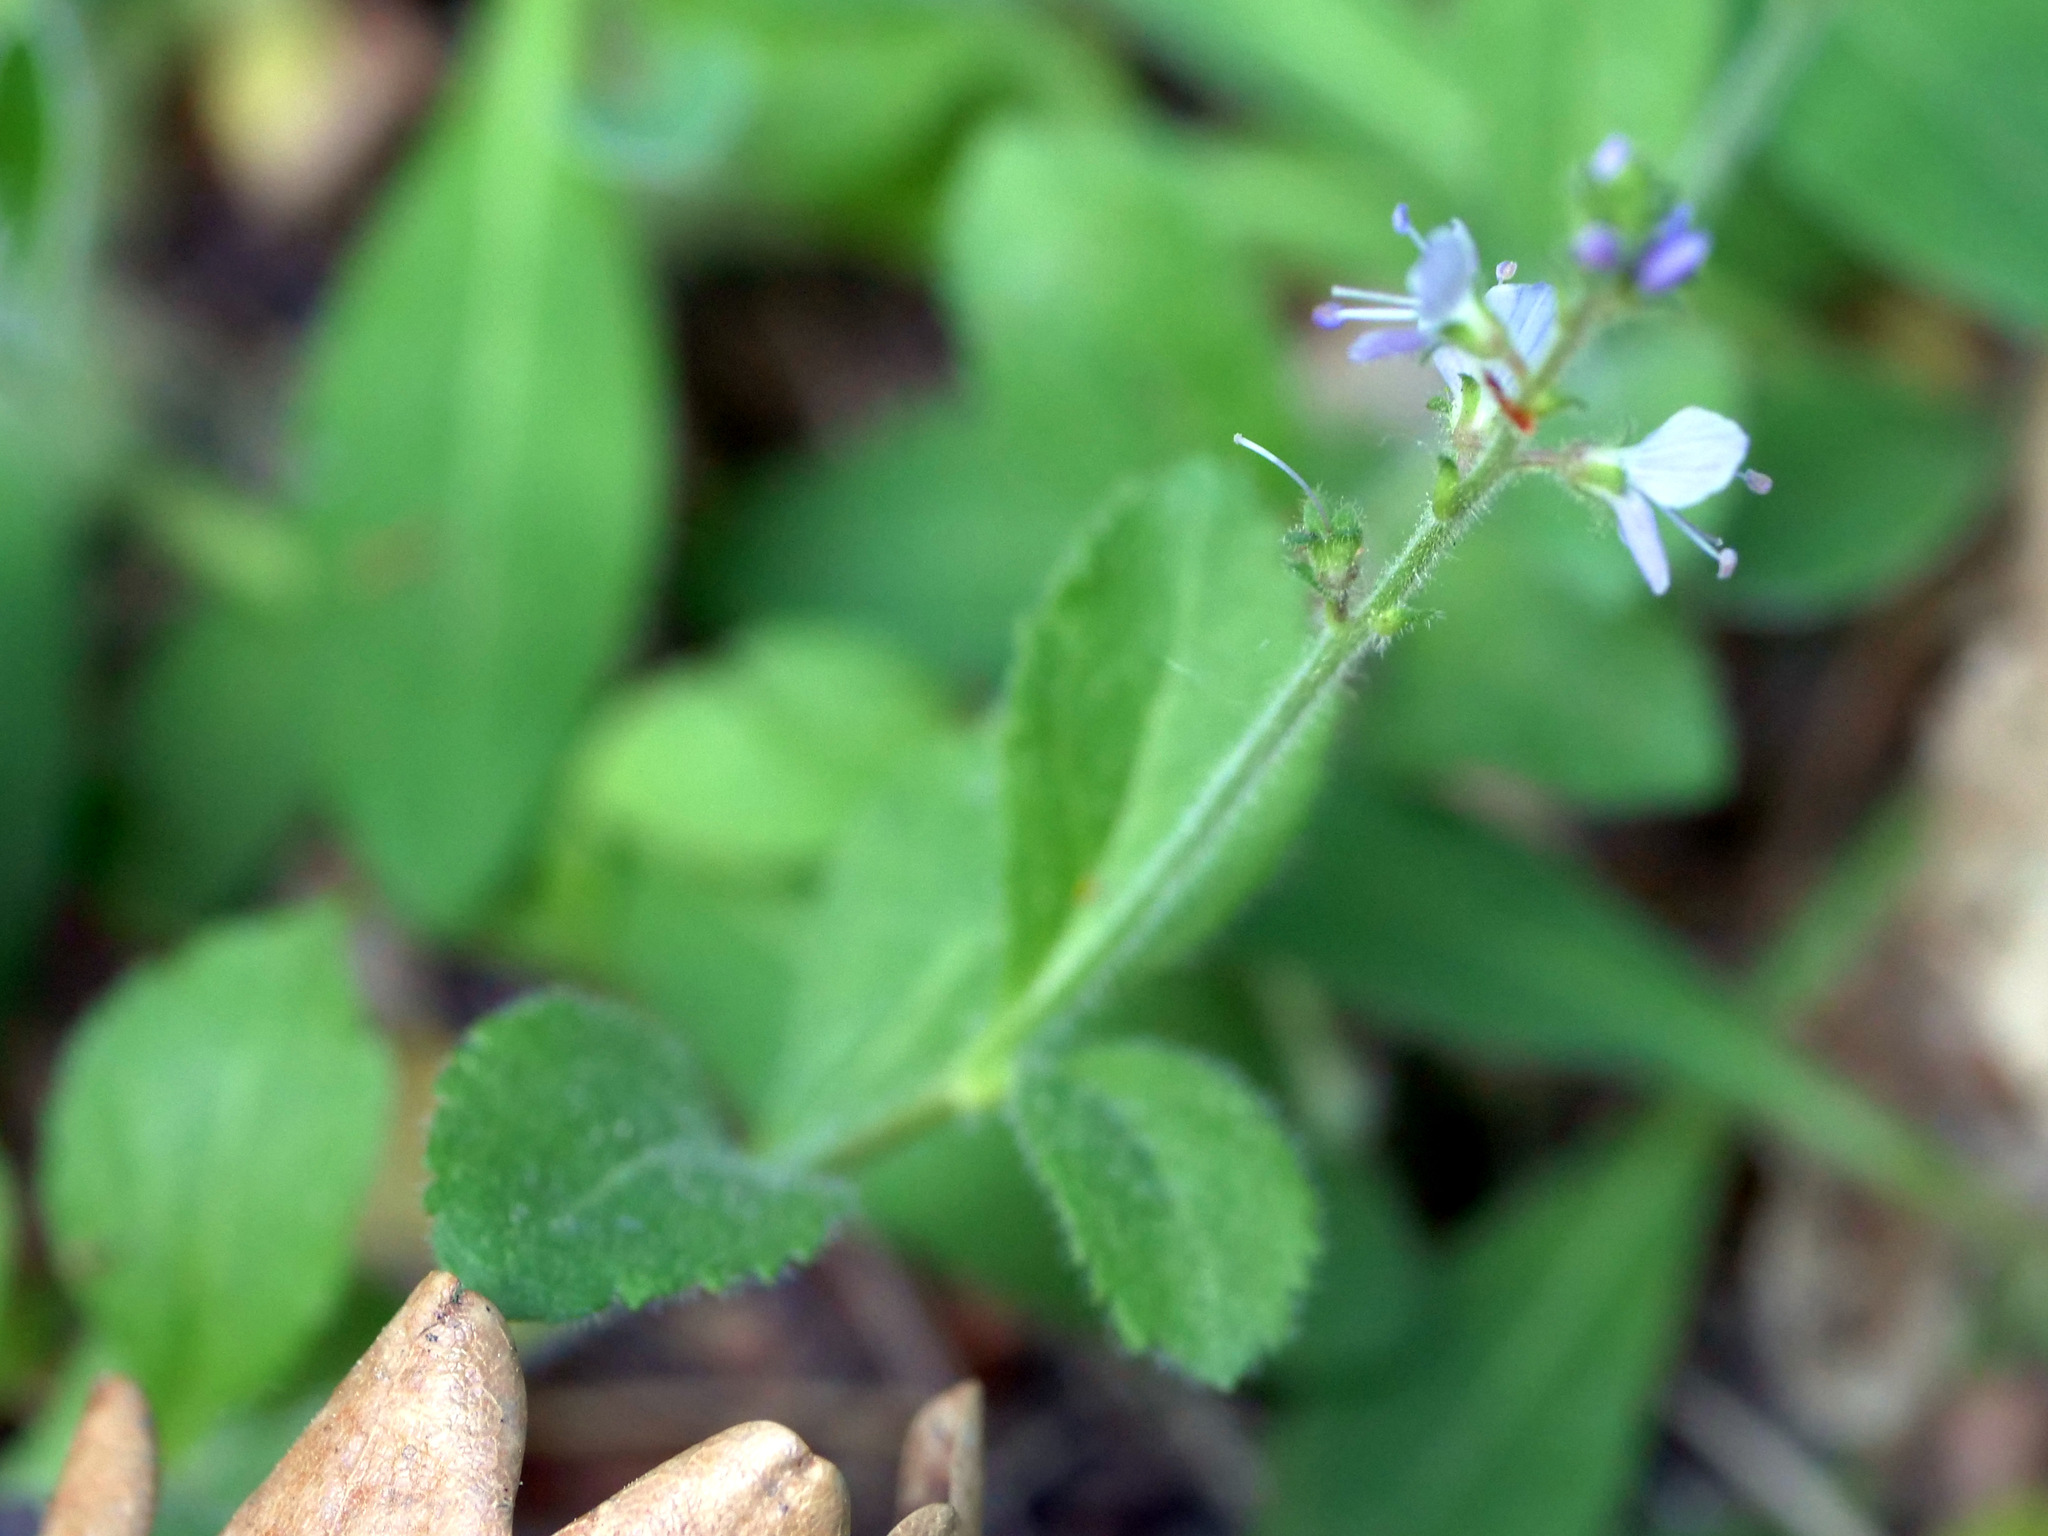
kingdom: Plantae
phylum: Tracheophyta
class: Magnoliopsida
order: Lamiales
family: Plantaginaceae
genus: Veronica
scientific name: Veronica officinalis
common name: Common speedwell
